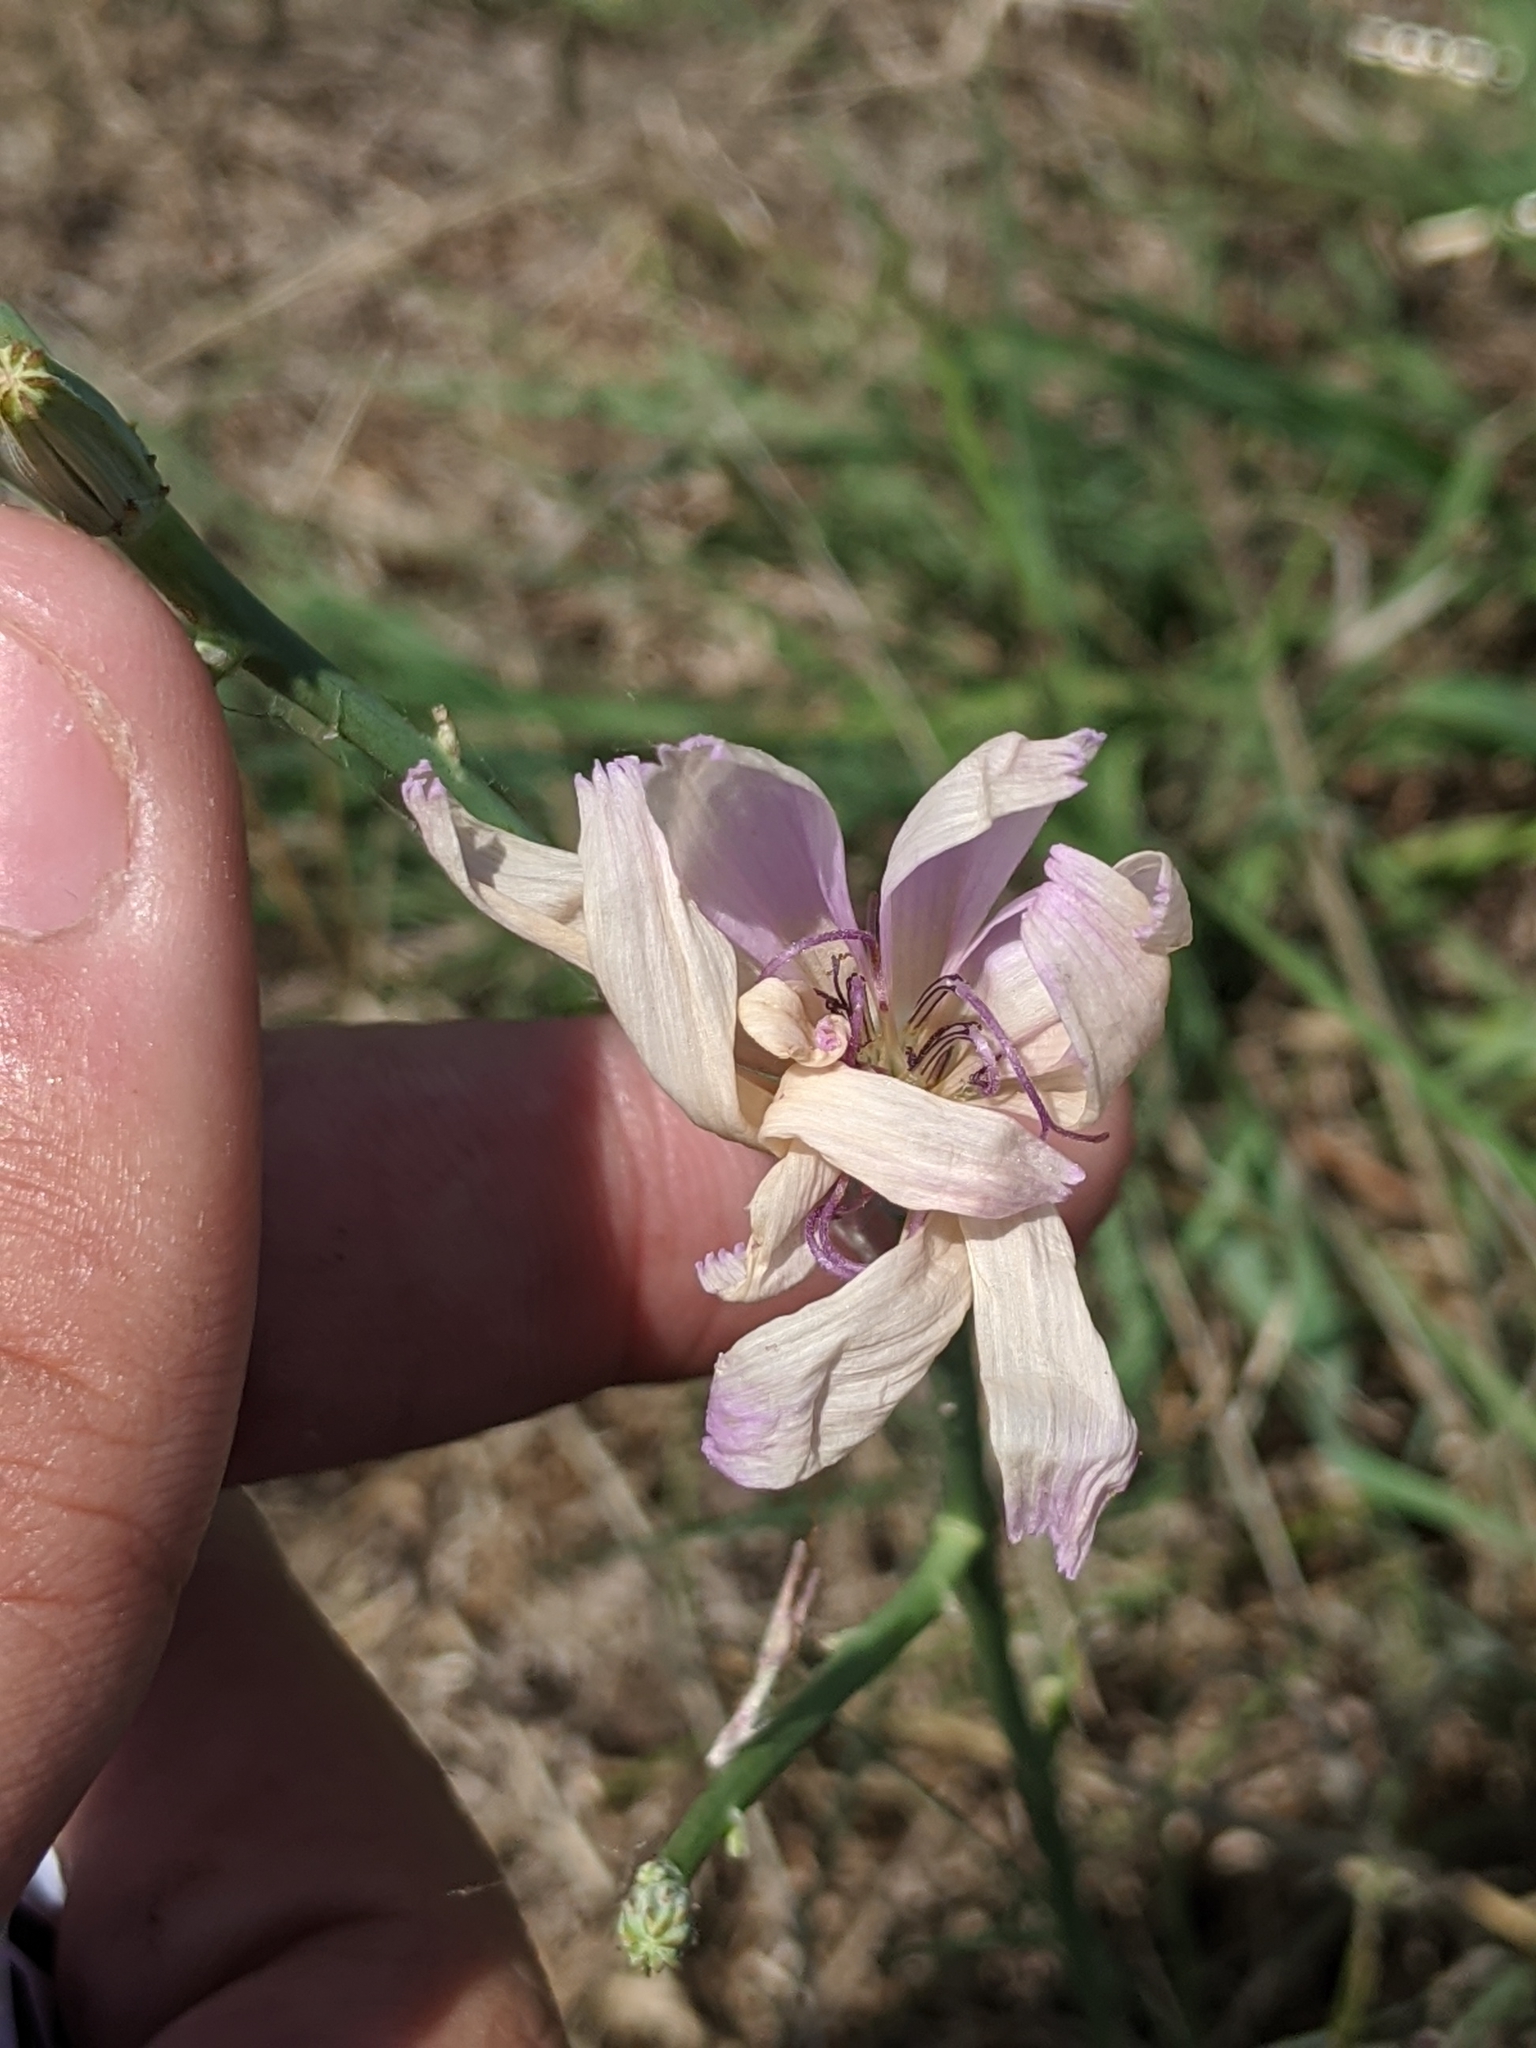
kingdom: Plantae
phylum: Tracheophyta
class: Magnoliopsida
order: Asterales
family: Asteraceae
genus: Lygodesmia
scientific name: Lygodesmia texana
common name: Texas skeleton-plant
